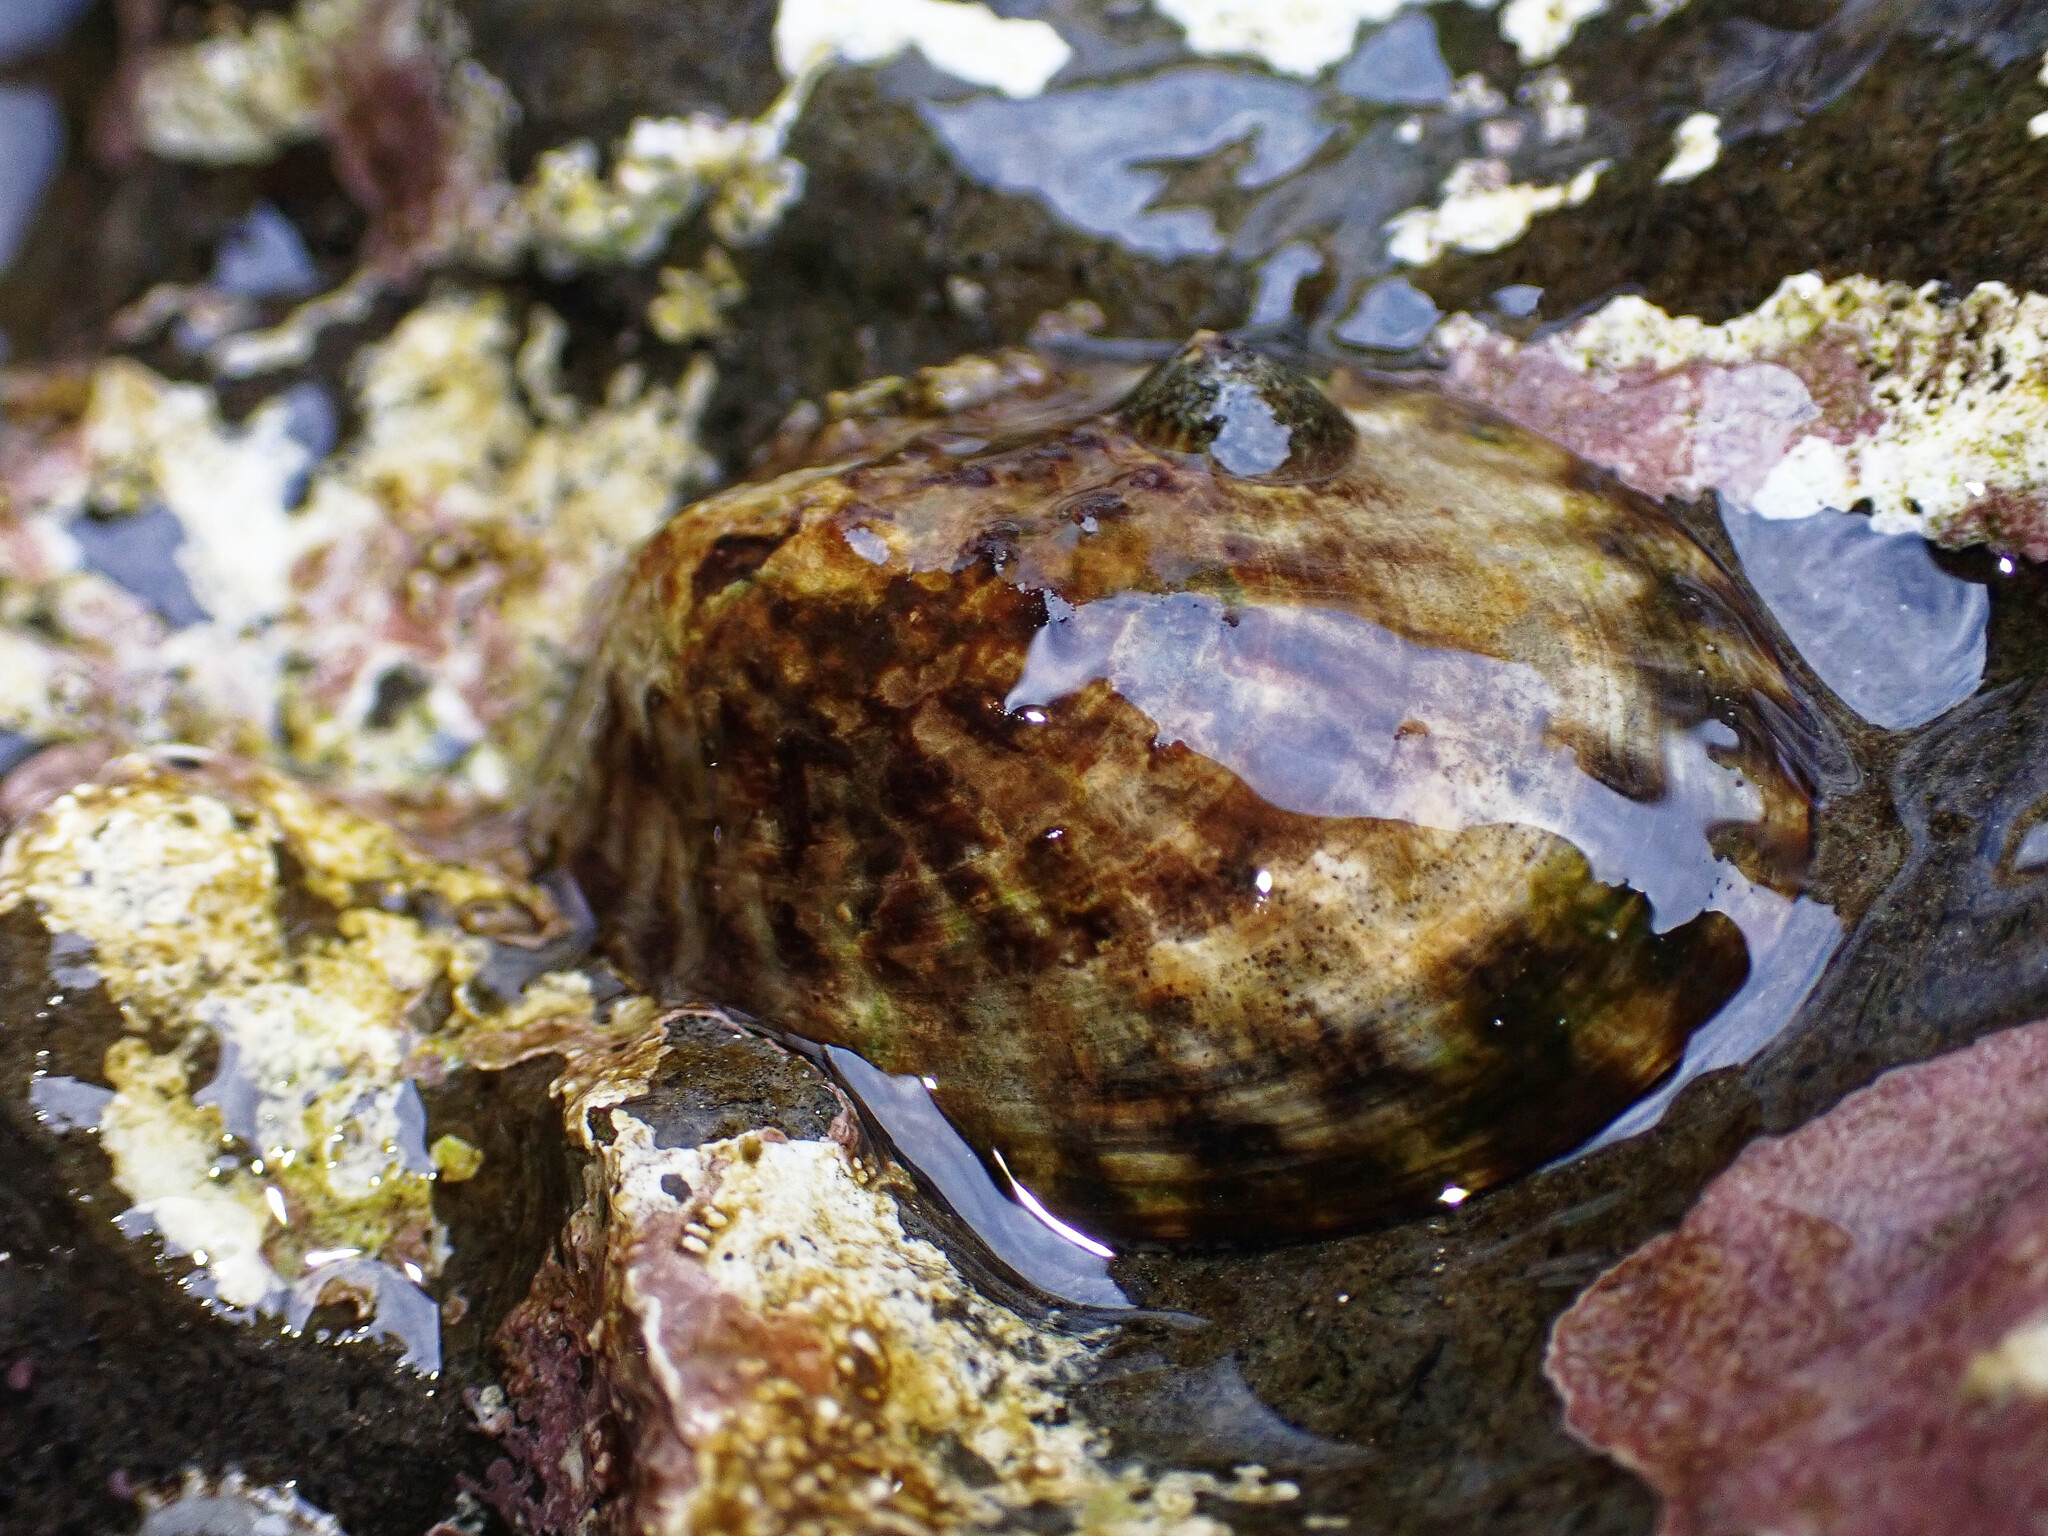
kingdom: Animalia
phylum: Mollusca
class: Gastropoda
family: Lottiidae
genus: Lottia
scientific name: Lottia gigantea
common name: Owl limpet
